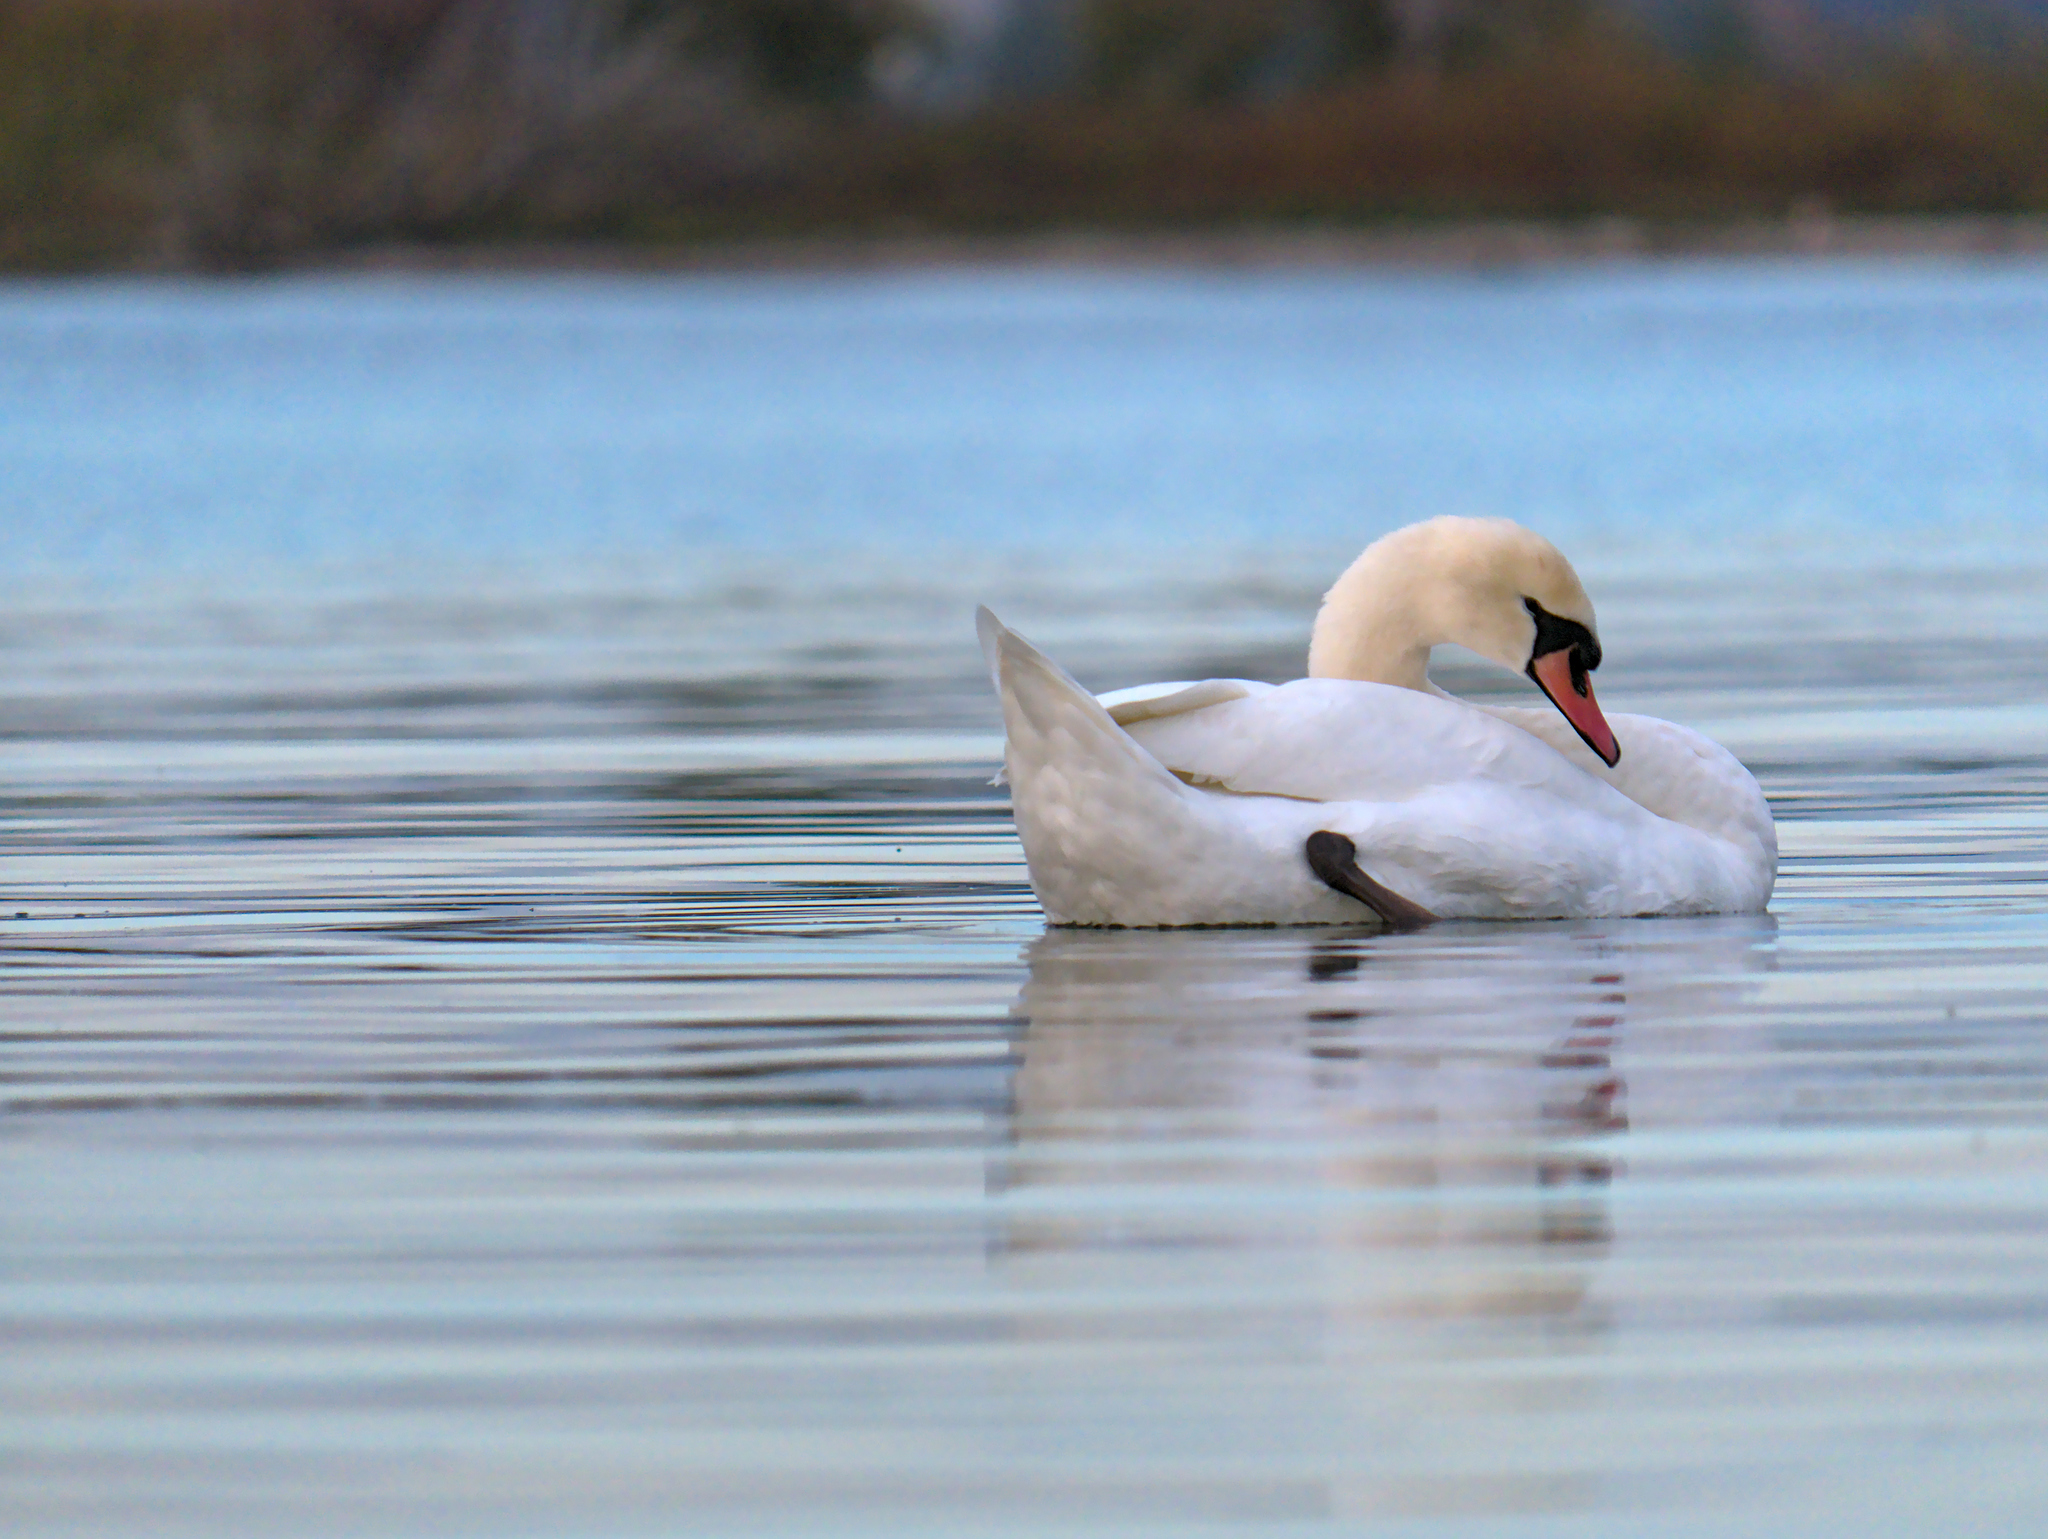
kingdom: Animalia
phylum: Chordata
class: Aves
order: Anseriformes
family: Anatidae
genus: Cygnus
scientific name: Cygnus olor
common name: Mute swan
